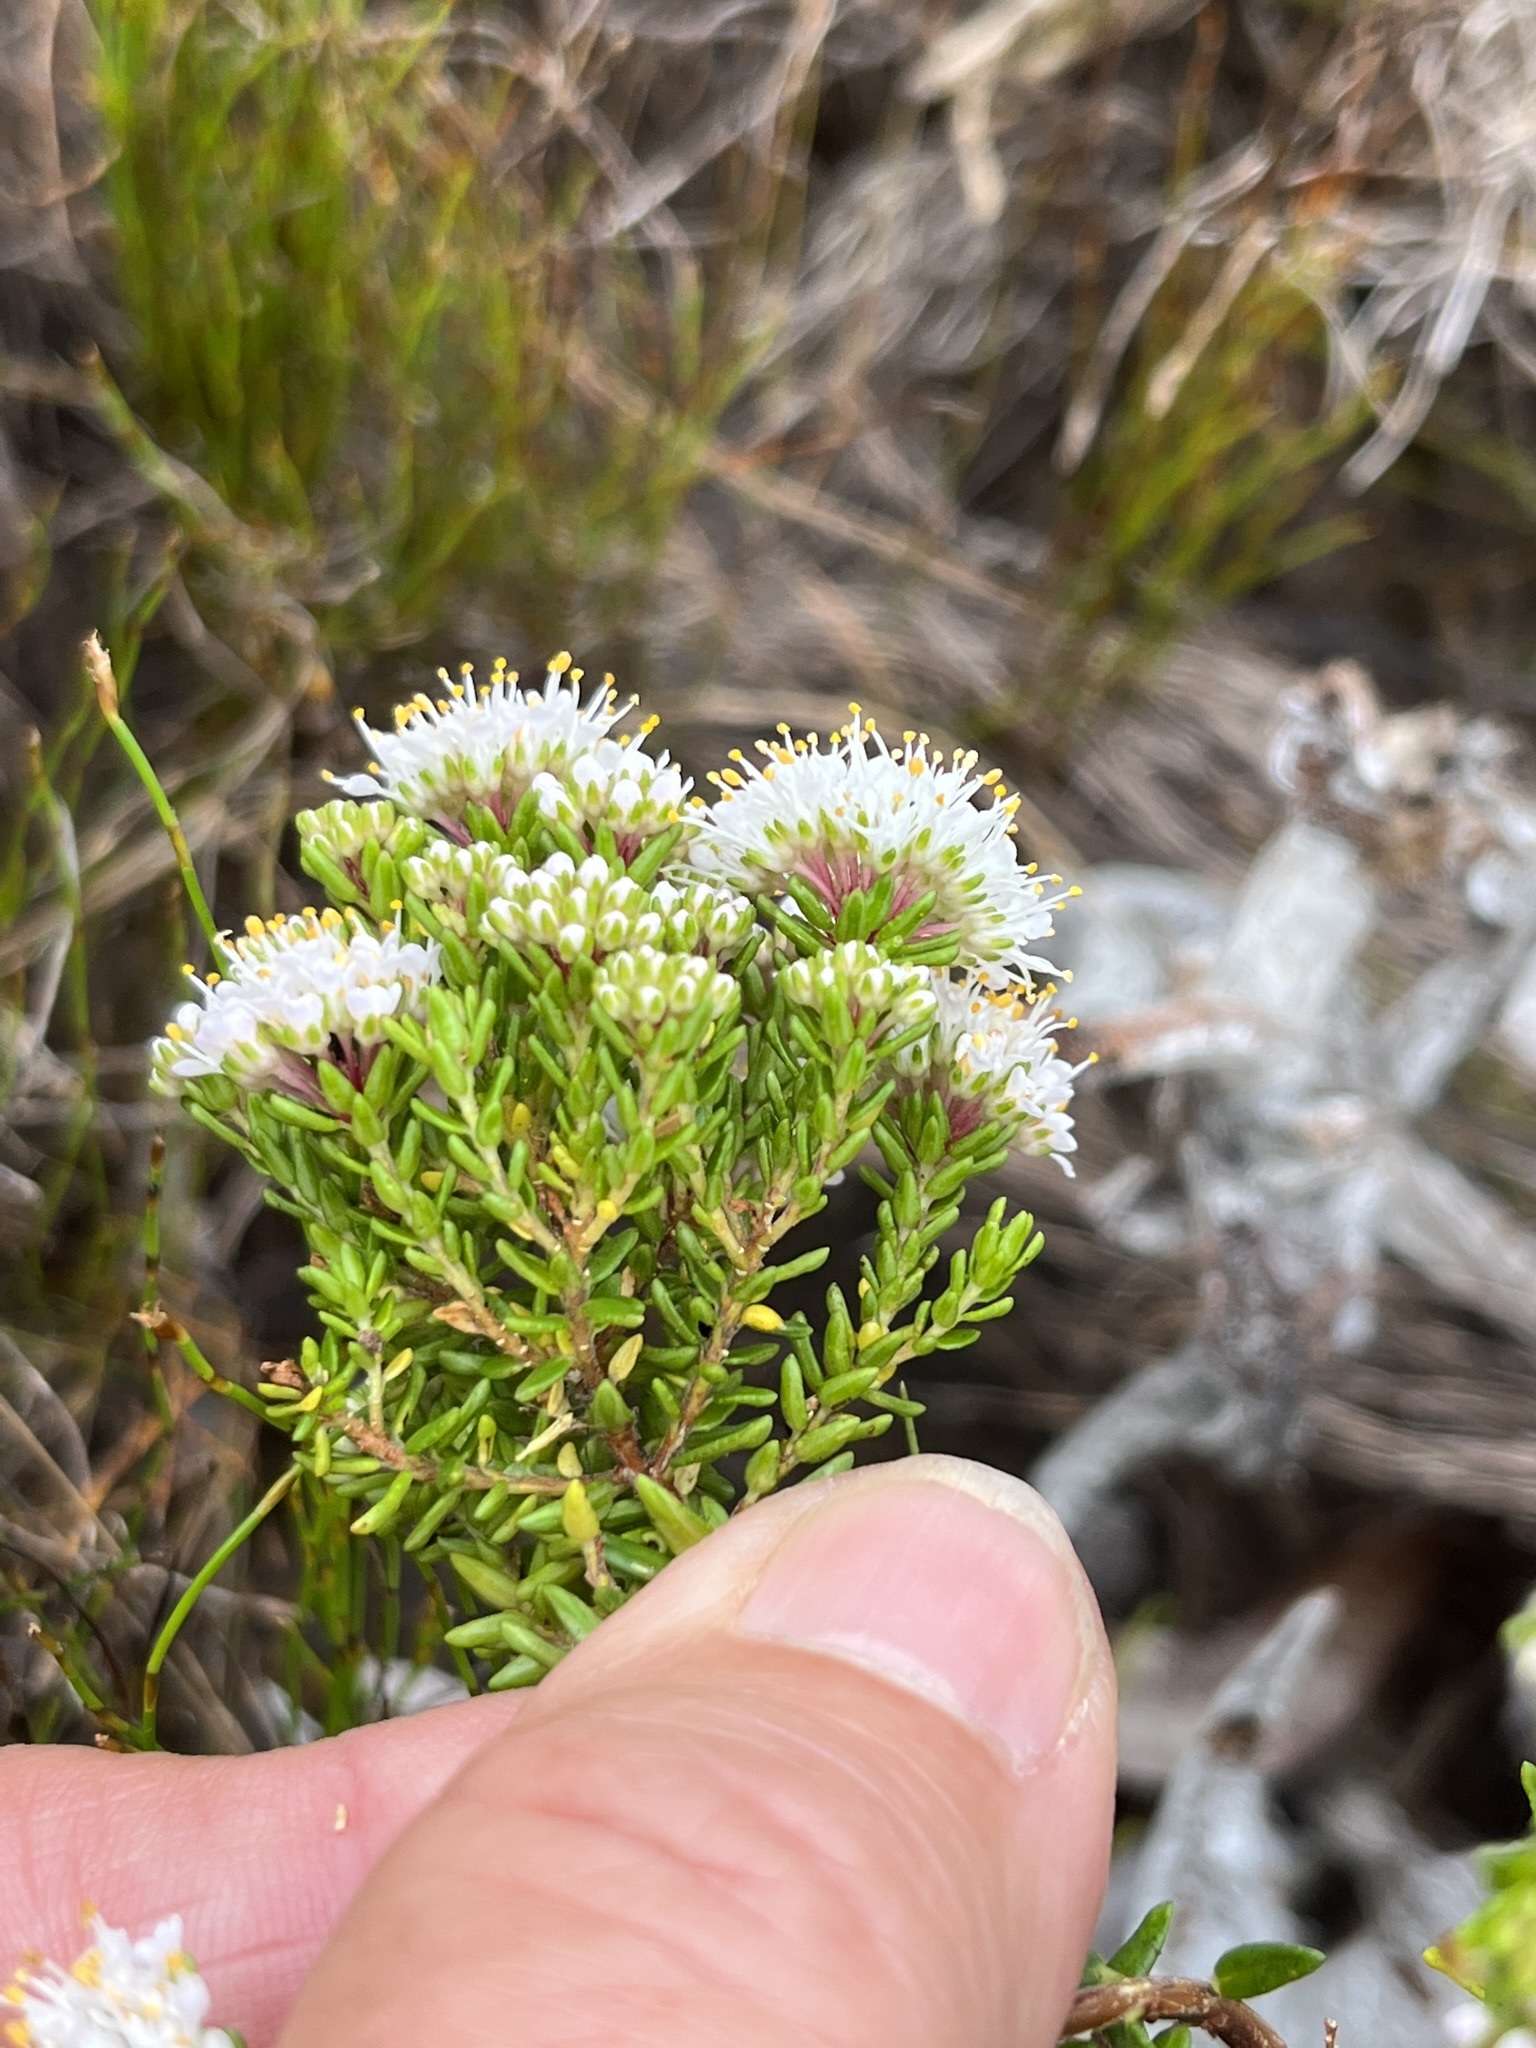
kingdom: Plantae
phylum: Tracheophyta
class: Magnoliopsida
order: Sapindales
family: Rutaceae
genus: Agathosma
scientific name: Agathosma bifida
